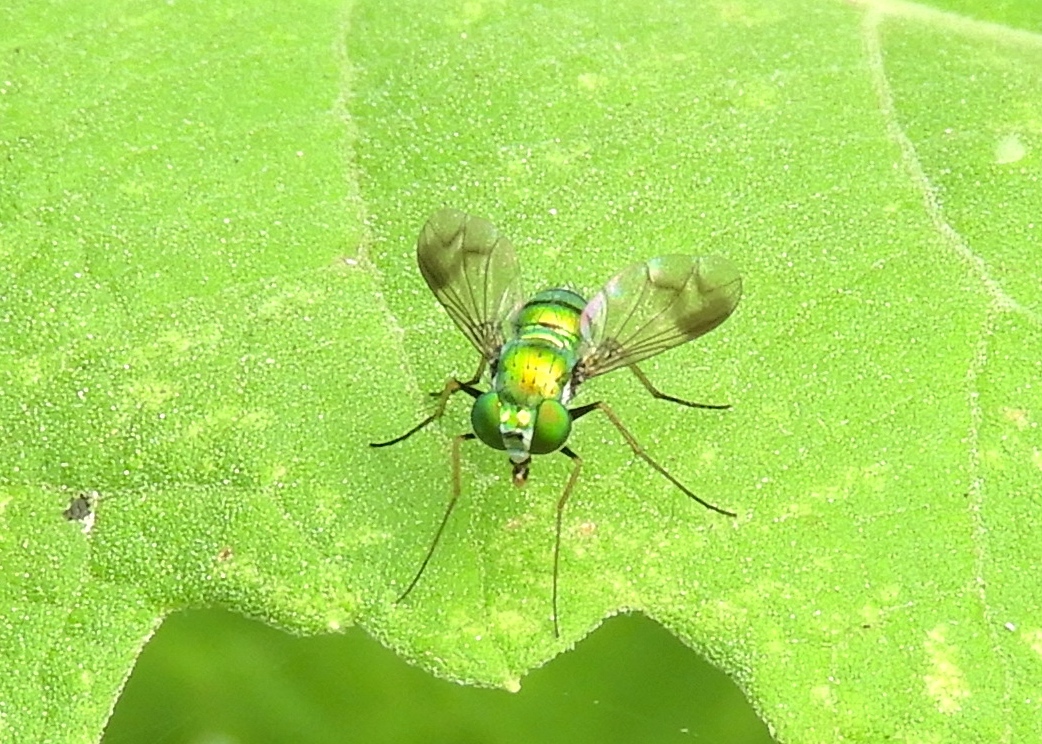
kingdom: Animalia
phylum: Arthropoda
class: Insecta
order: Diptera
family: Dolichopodidae
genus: Condylostylus
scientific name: Condylostylus
